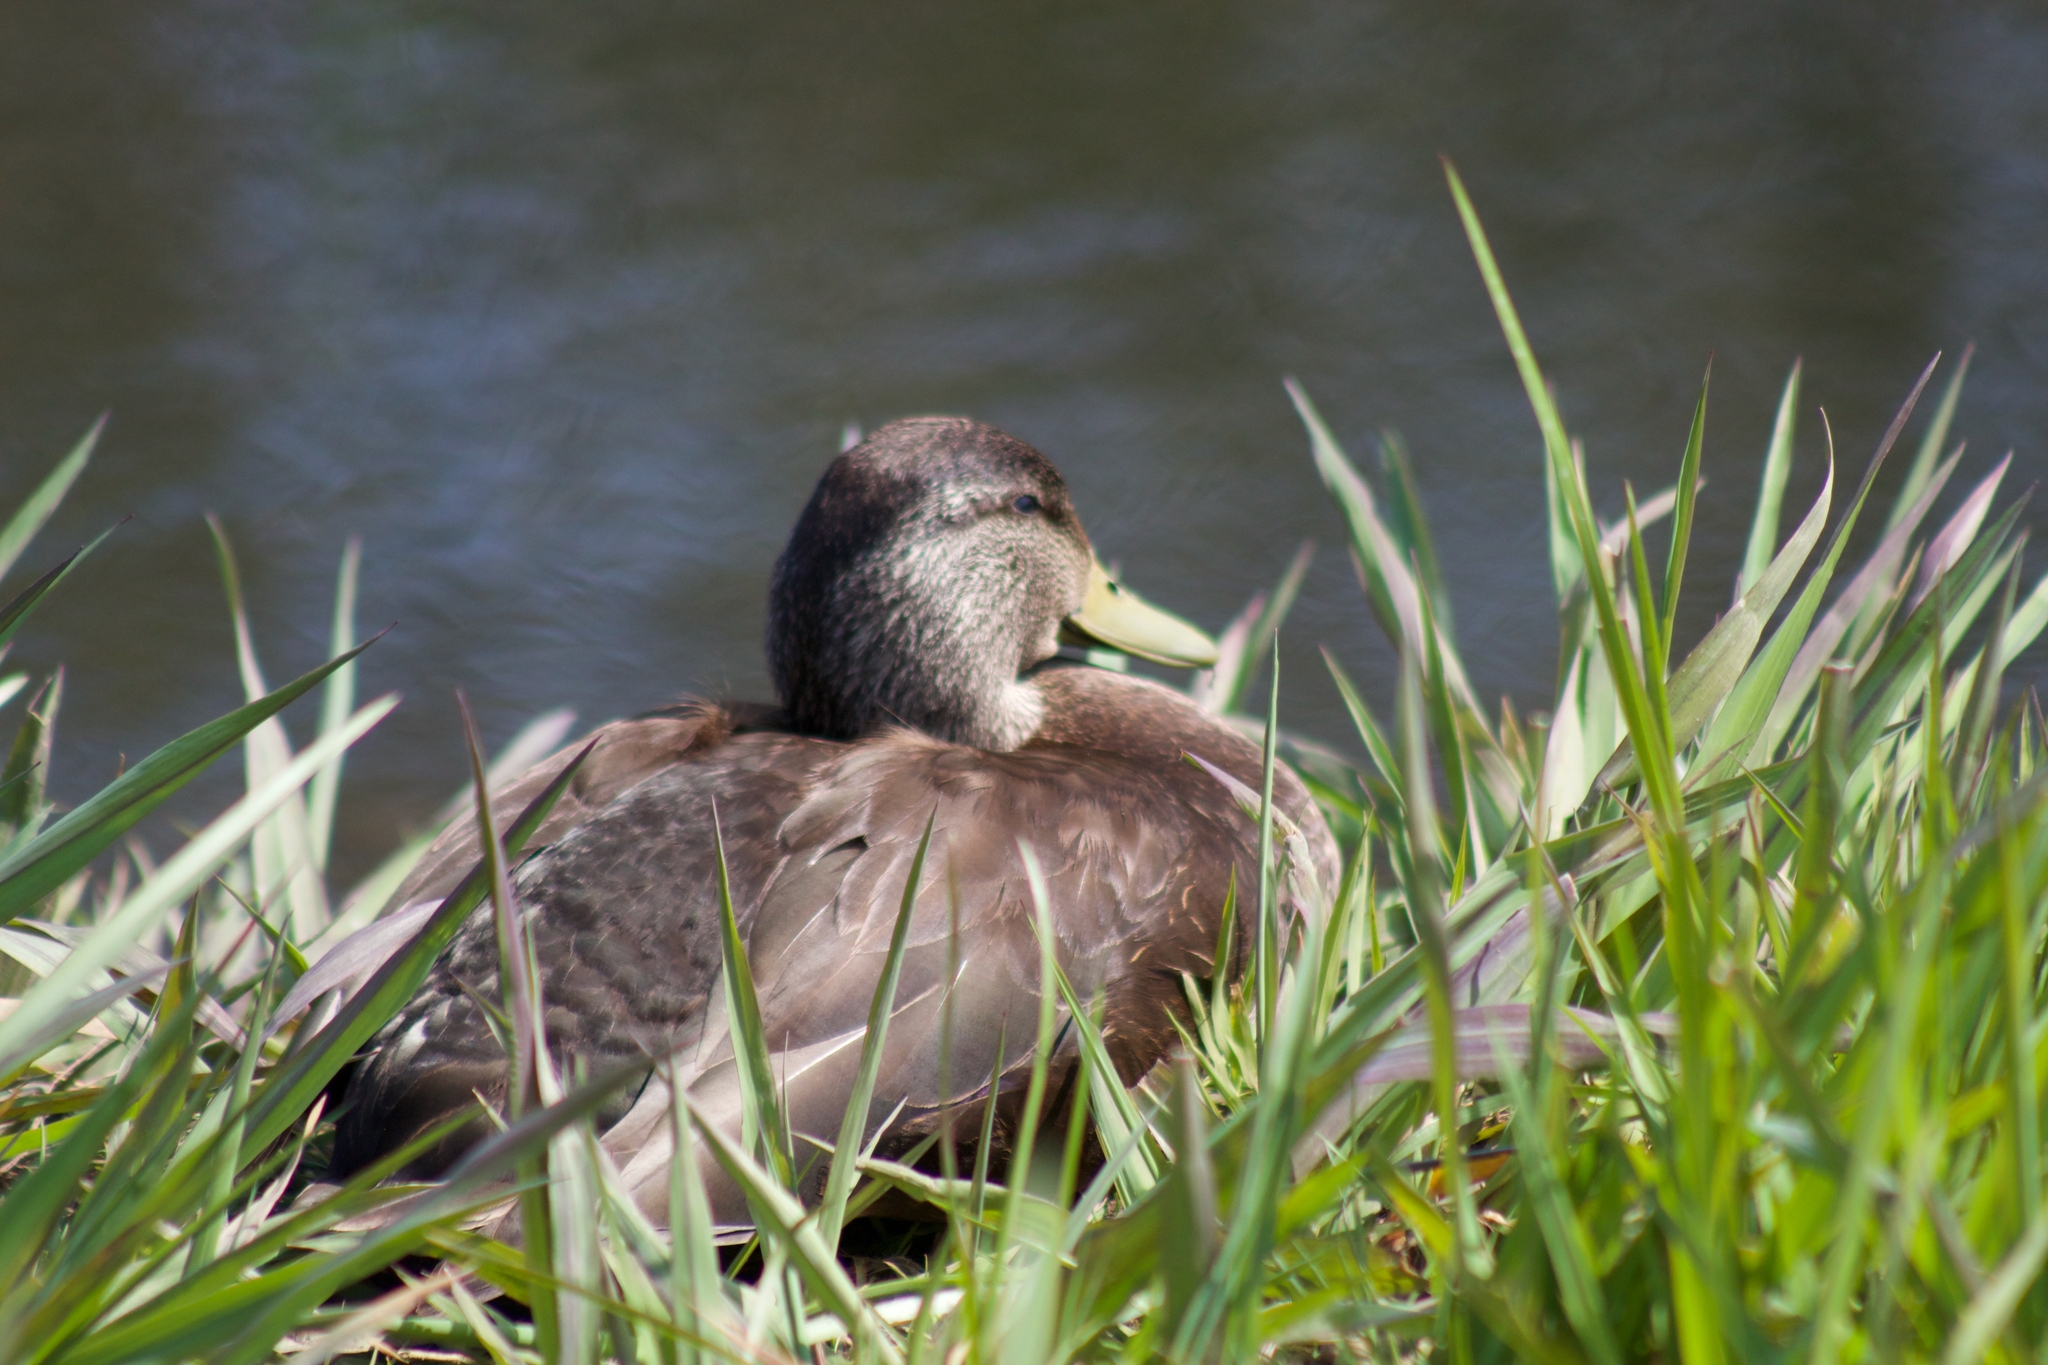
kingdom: Animalia
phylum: Chordata
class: Aves
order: Anseriformes
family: Anatidae
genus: Anas
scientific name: Anas rubripes
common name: American black duck
